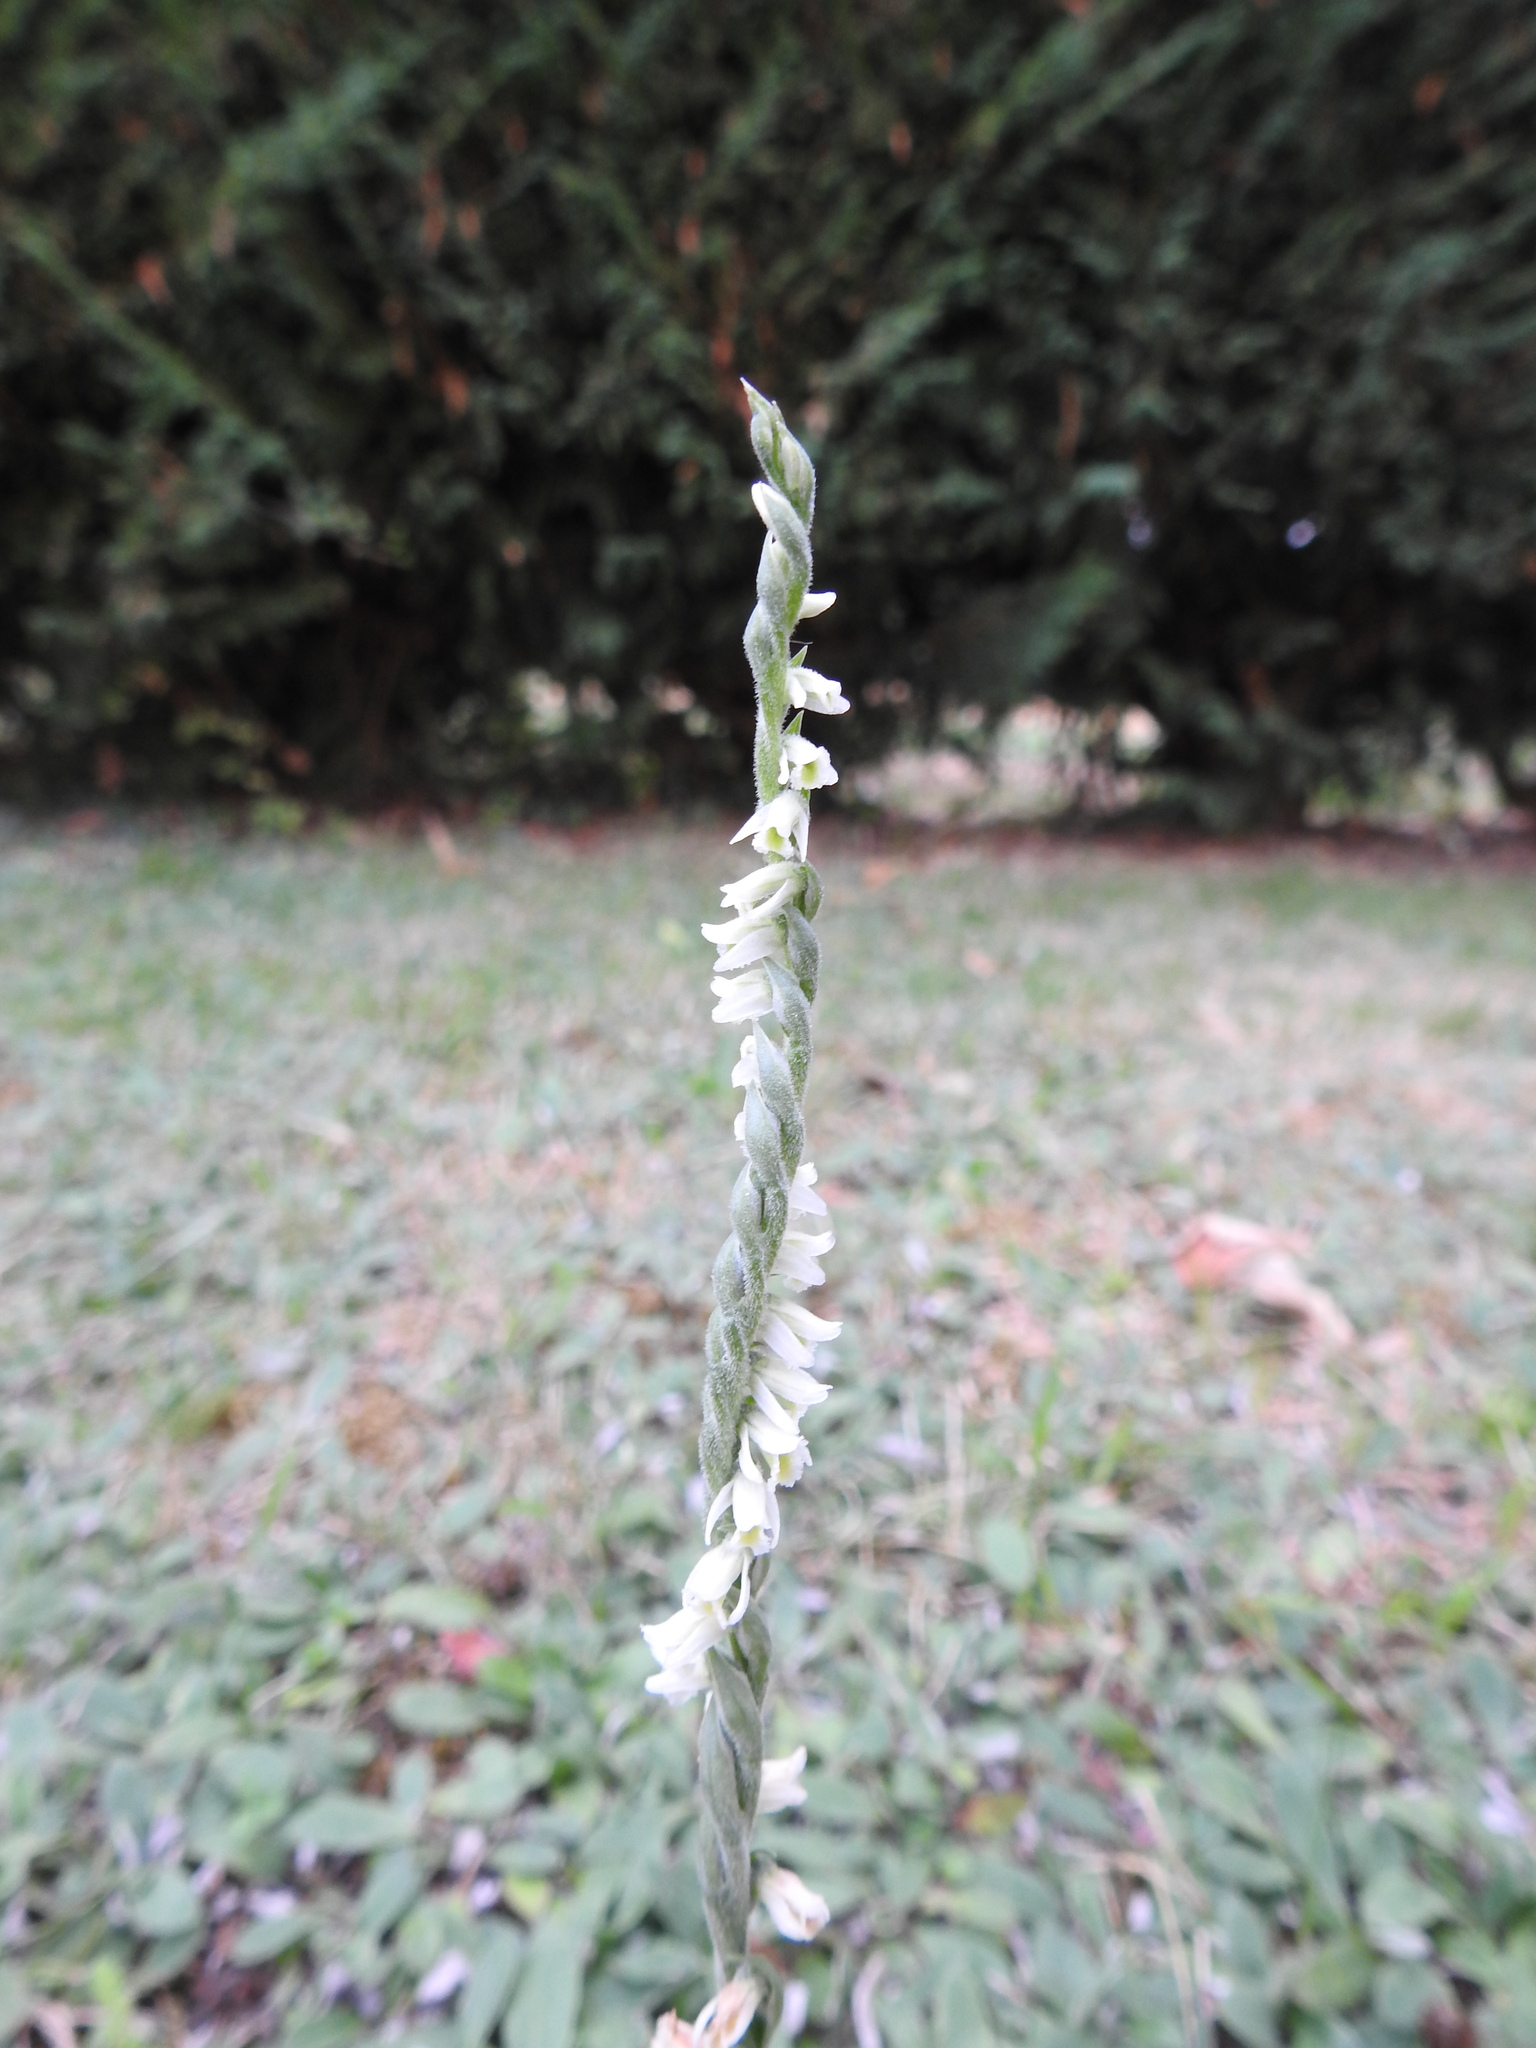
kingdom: Plantae
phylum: Tracheophyta
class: Liliopsida
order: Asparagales
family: Orchidaceae
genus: Spiranthes
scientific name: Spiranthes spiralis
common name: Autumn lady's-tresses
